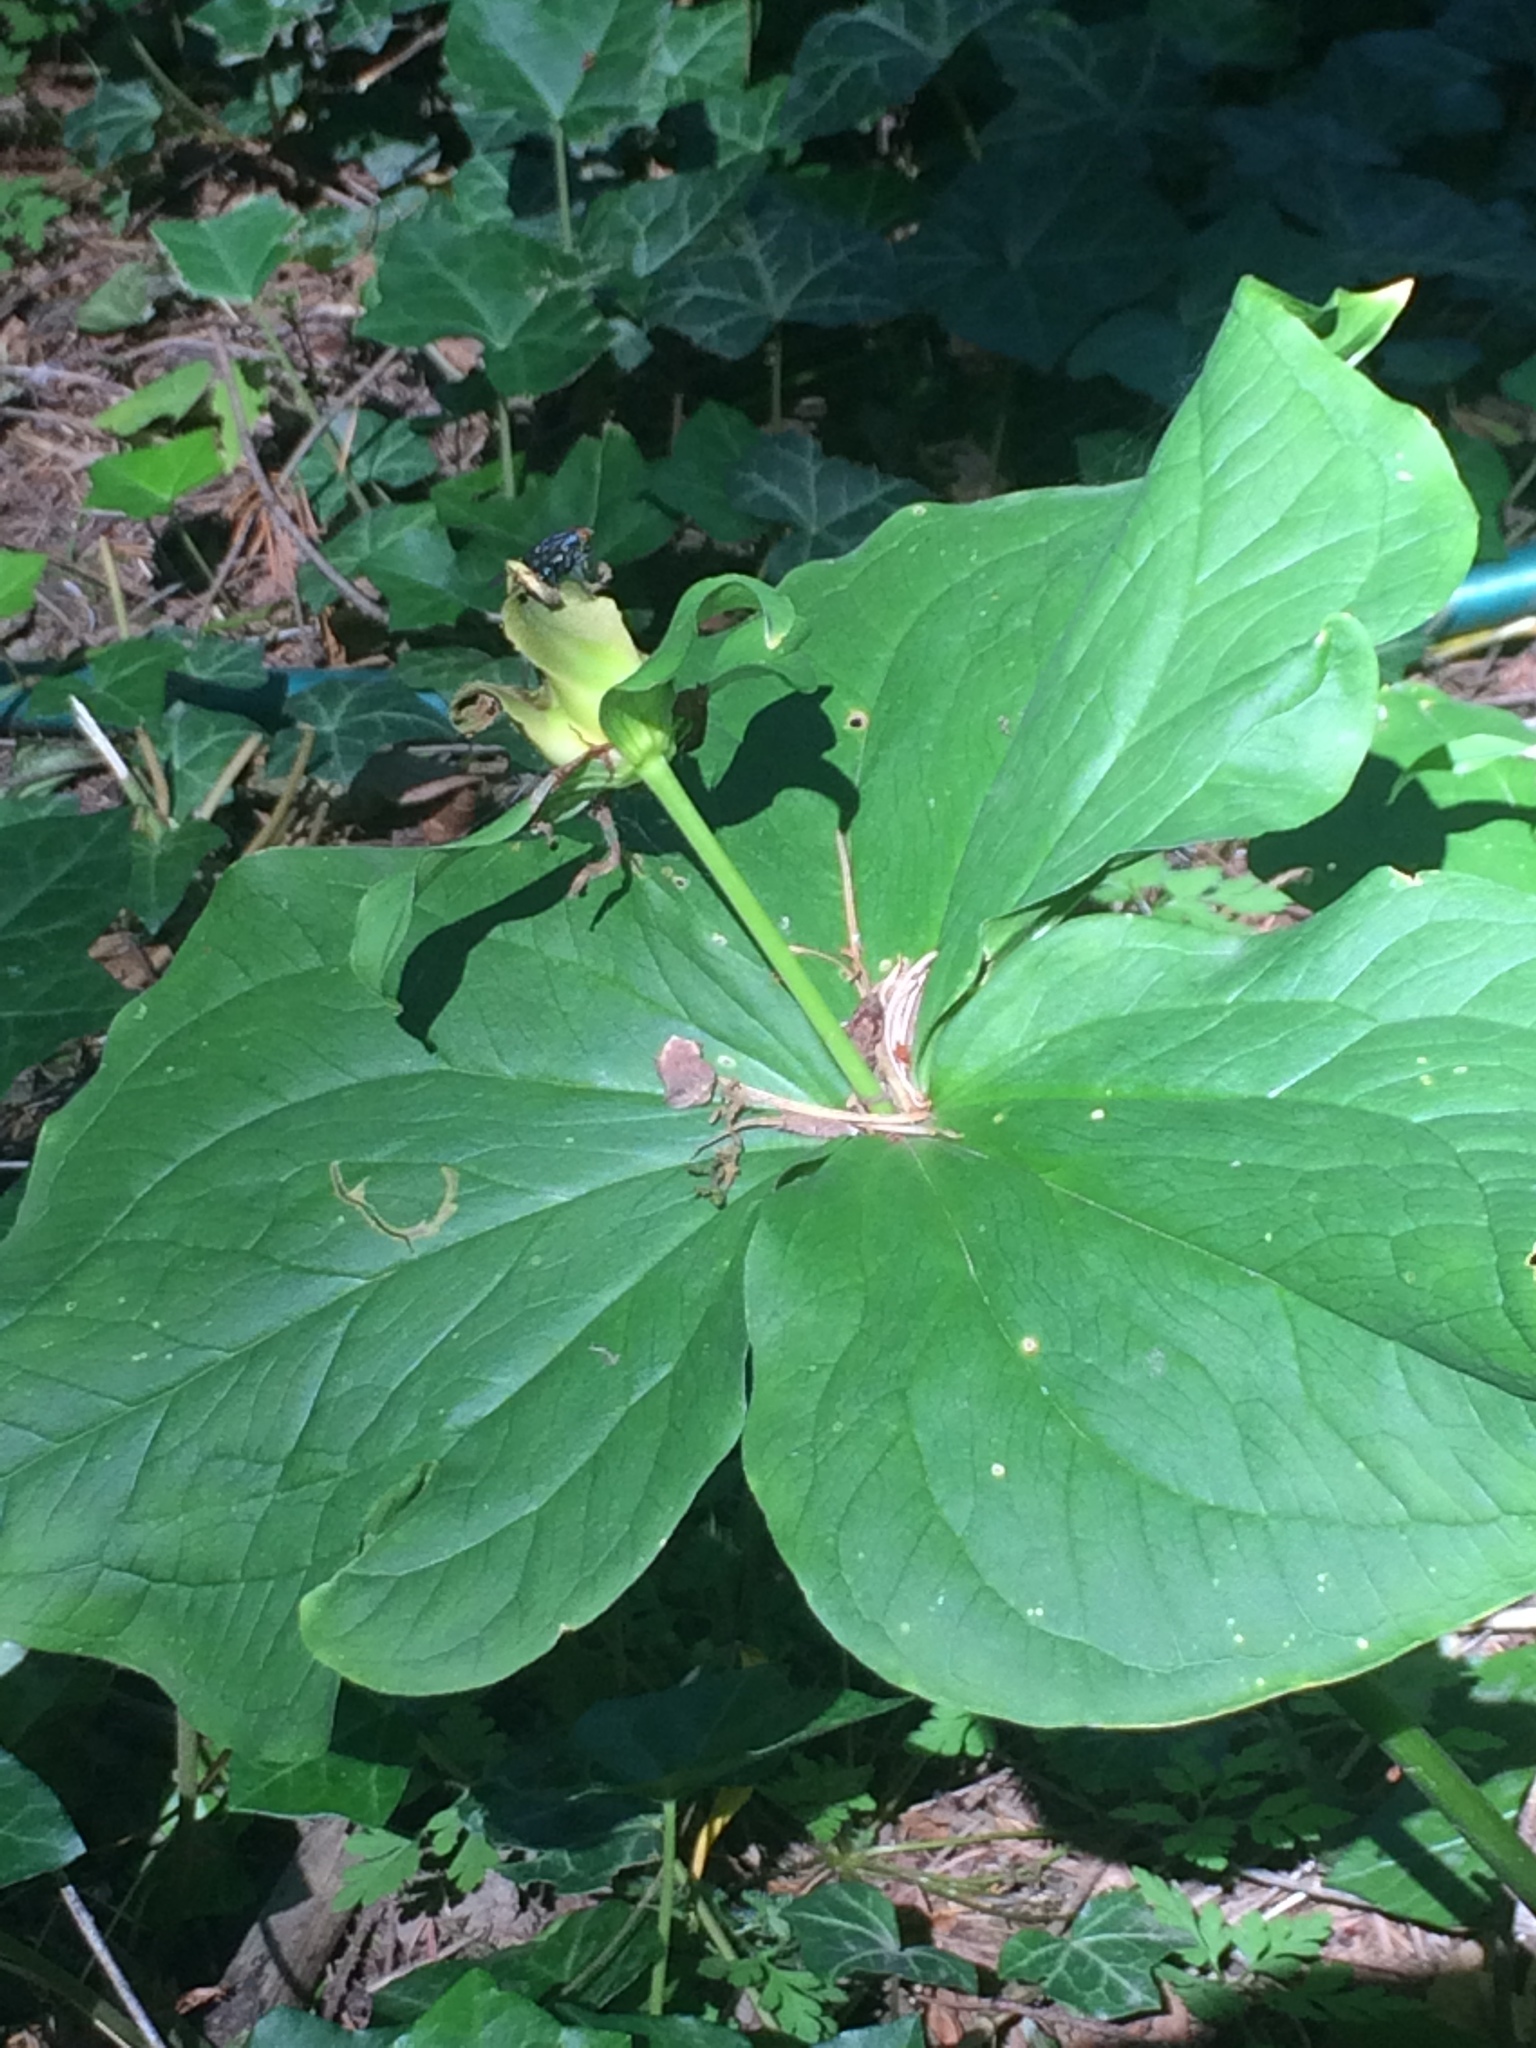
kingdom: Plantae
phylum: Tracheophyta
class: Liliopsida
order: Liliales
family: Melanthiaceae
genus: Trillium
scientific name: Trillium ovatum
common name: Pacific trillium
